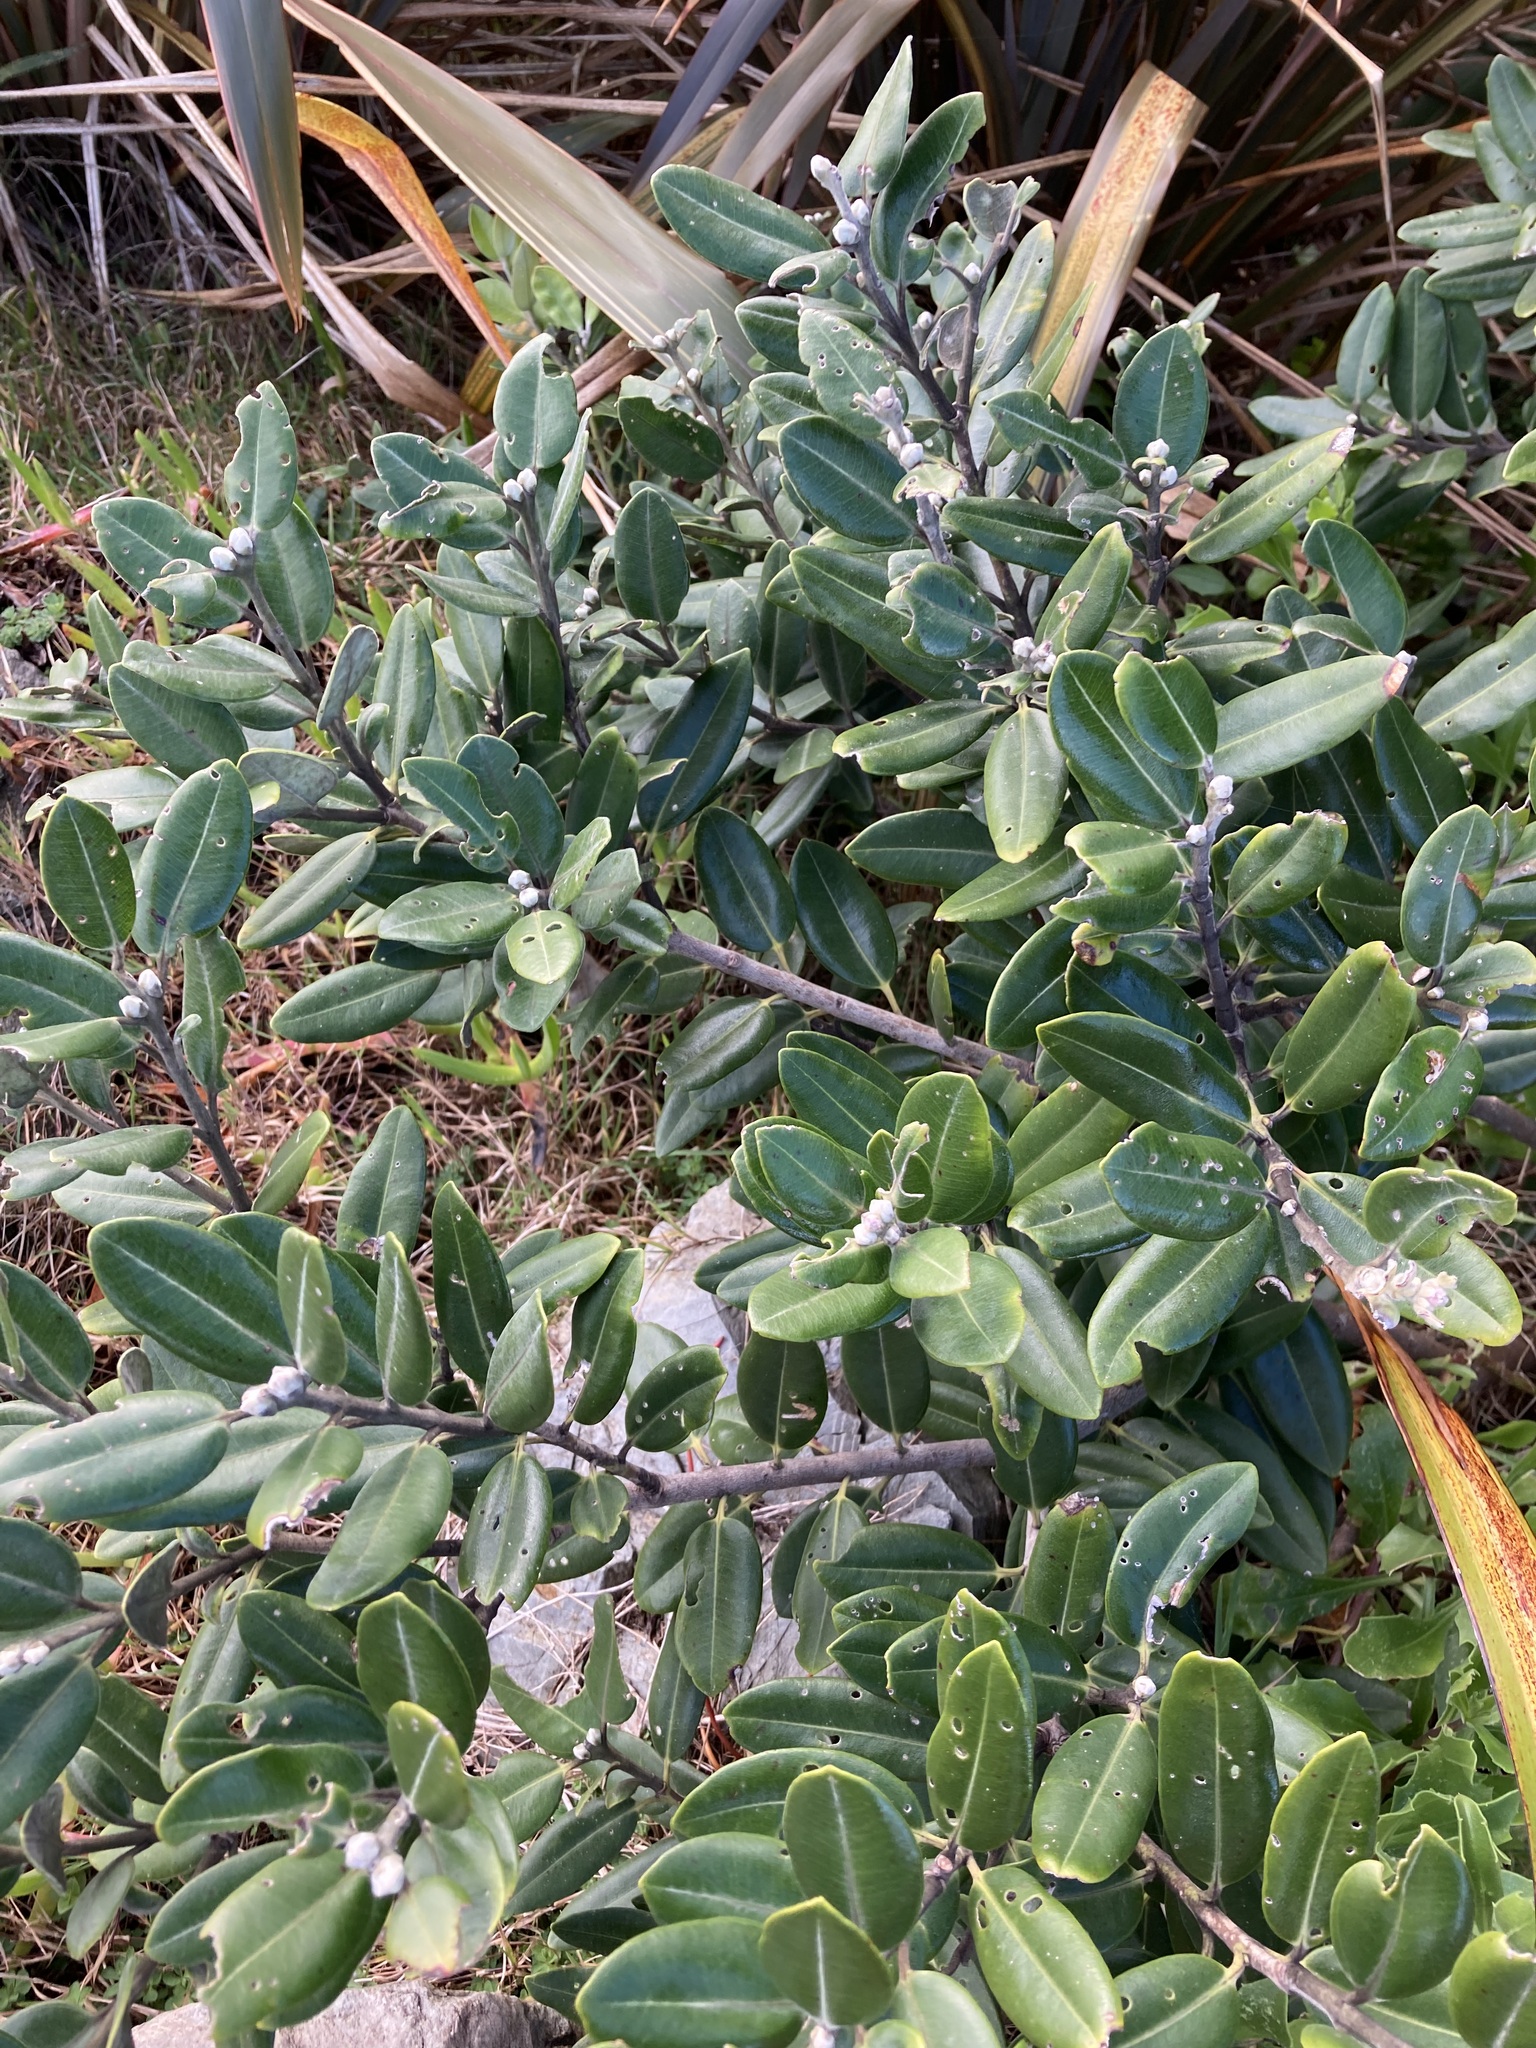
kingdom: Plantae
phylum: Tracheophyta
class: Magnoliopsida
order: Myrtales
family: Myrtaceae
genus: Metrosideros
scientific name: Metrosideros excelsa
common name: New zealand christmastree
